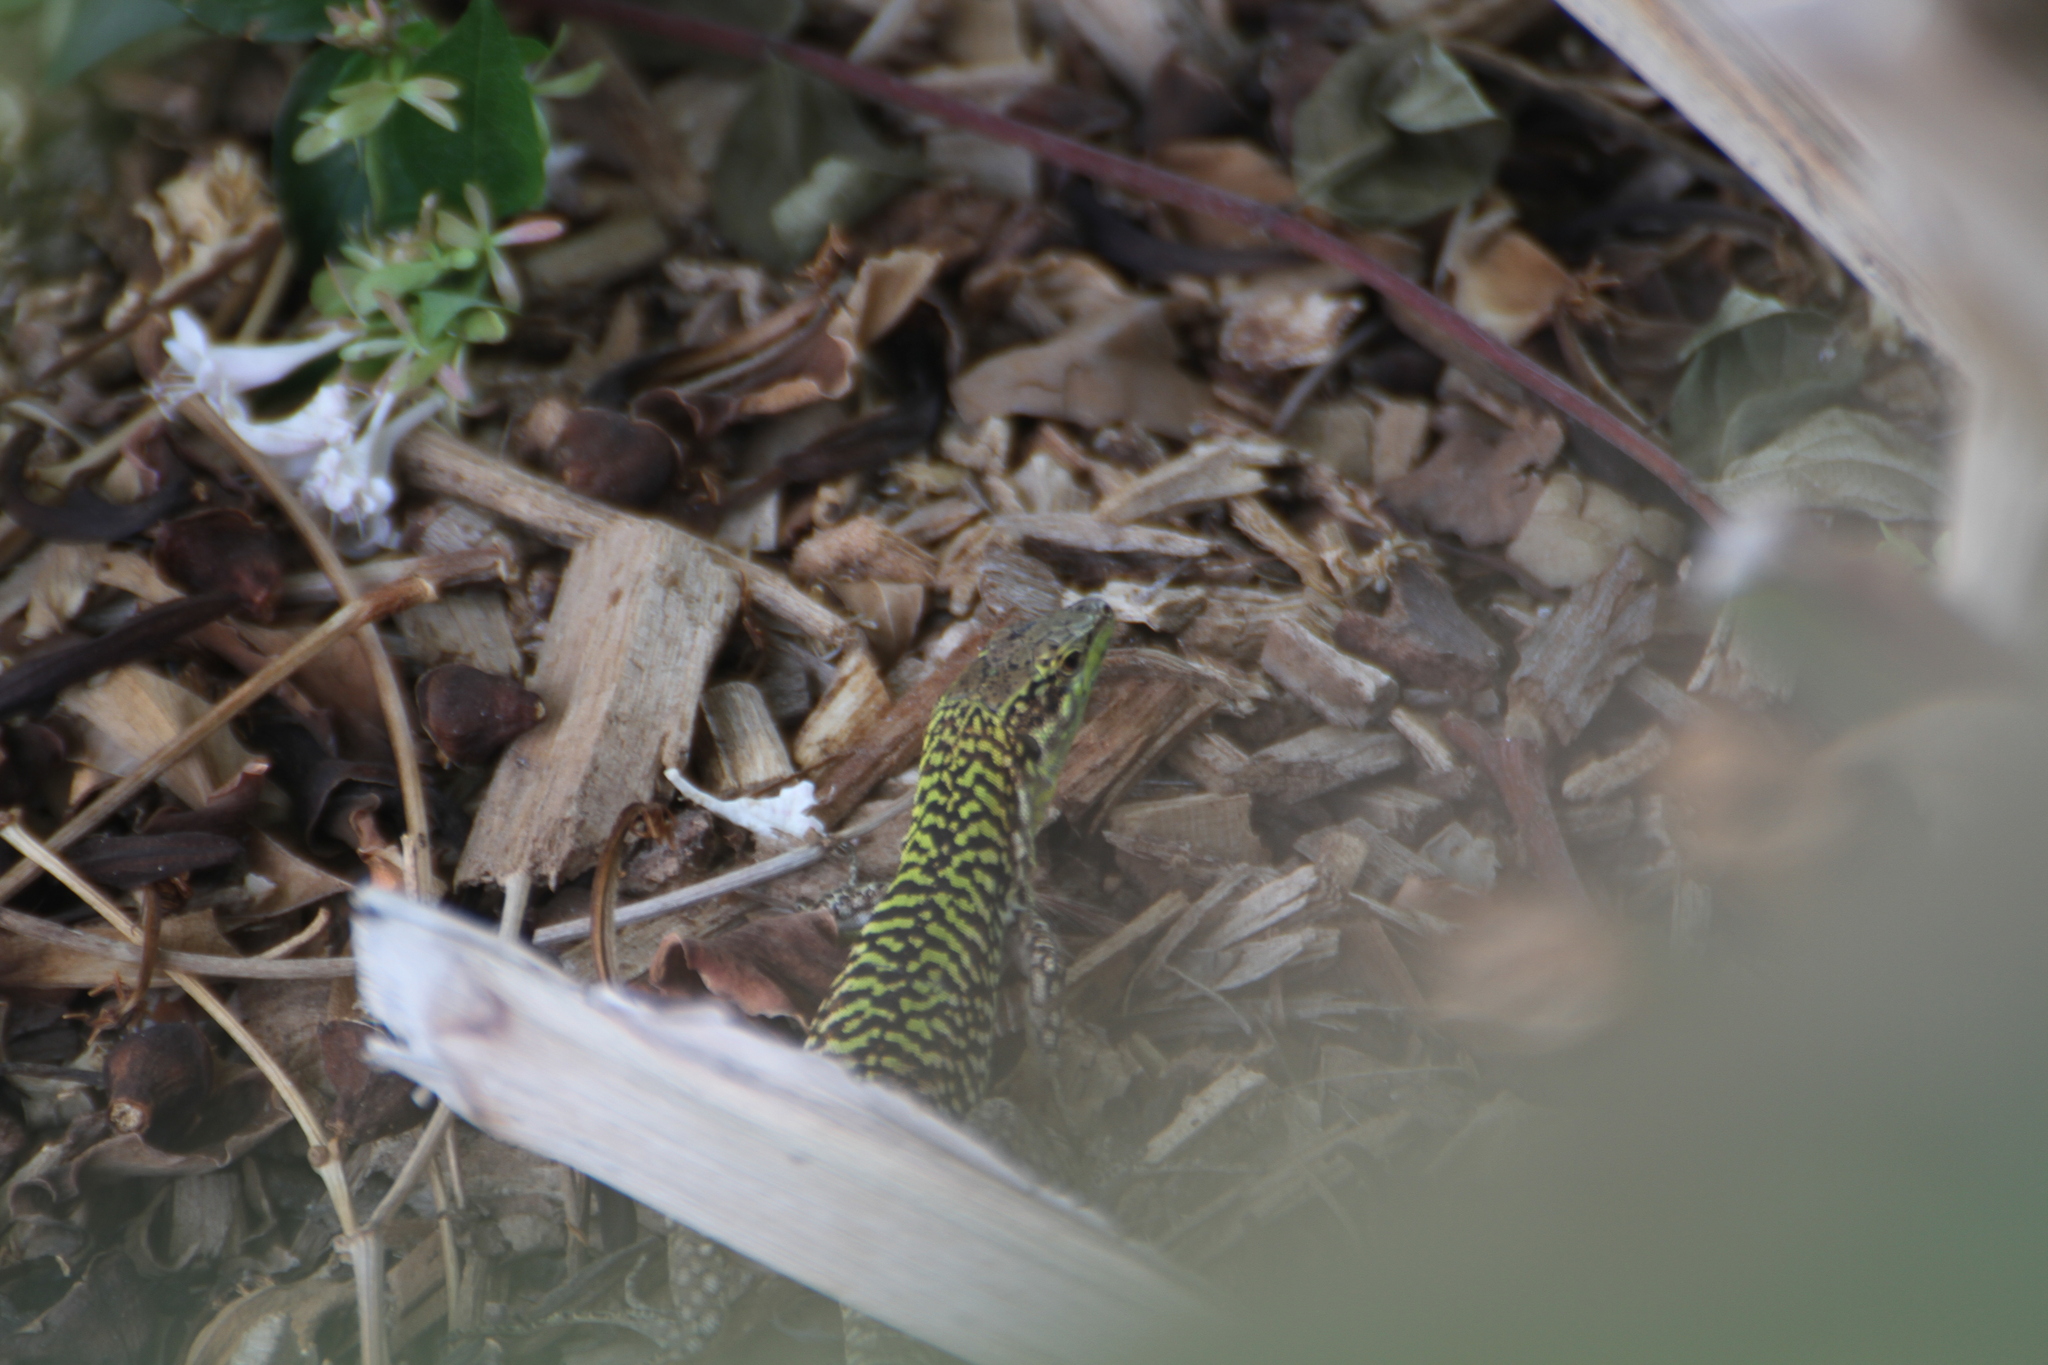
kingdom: Animalia
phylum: Chordata
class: Squamata
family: Lacertidae
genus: Podarcis
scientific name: Podarcis siculus
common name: Italian wall lizard
